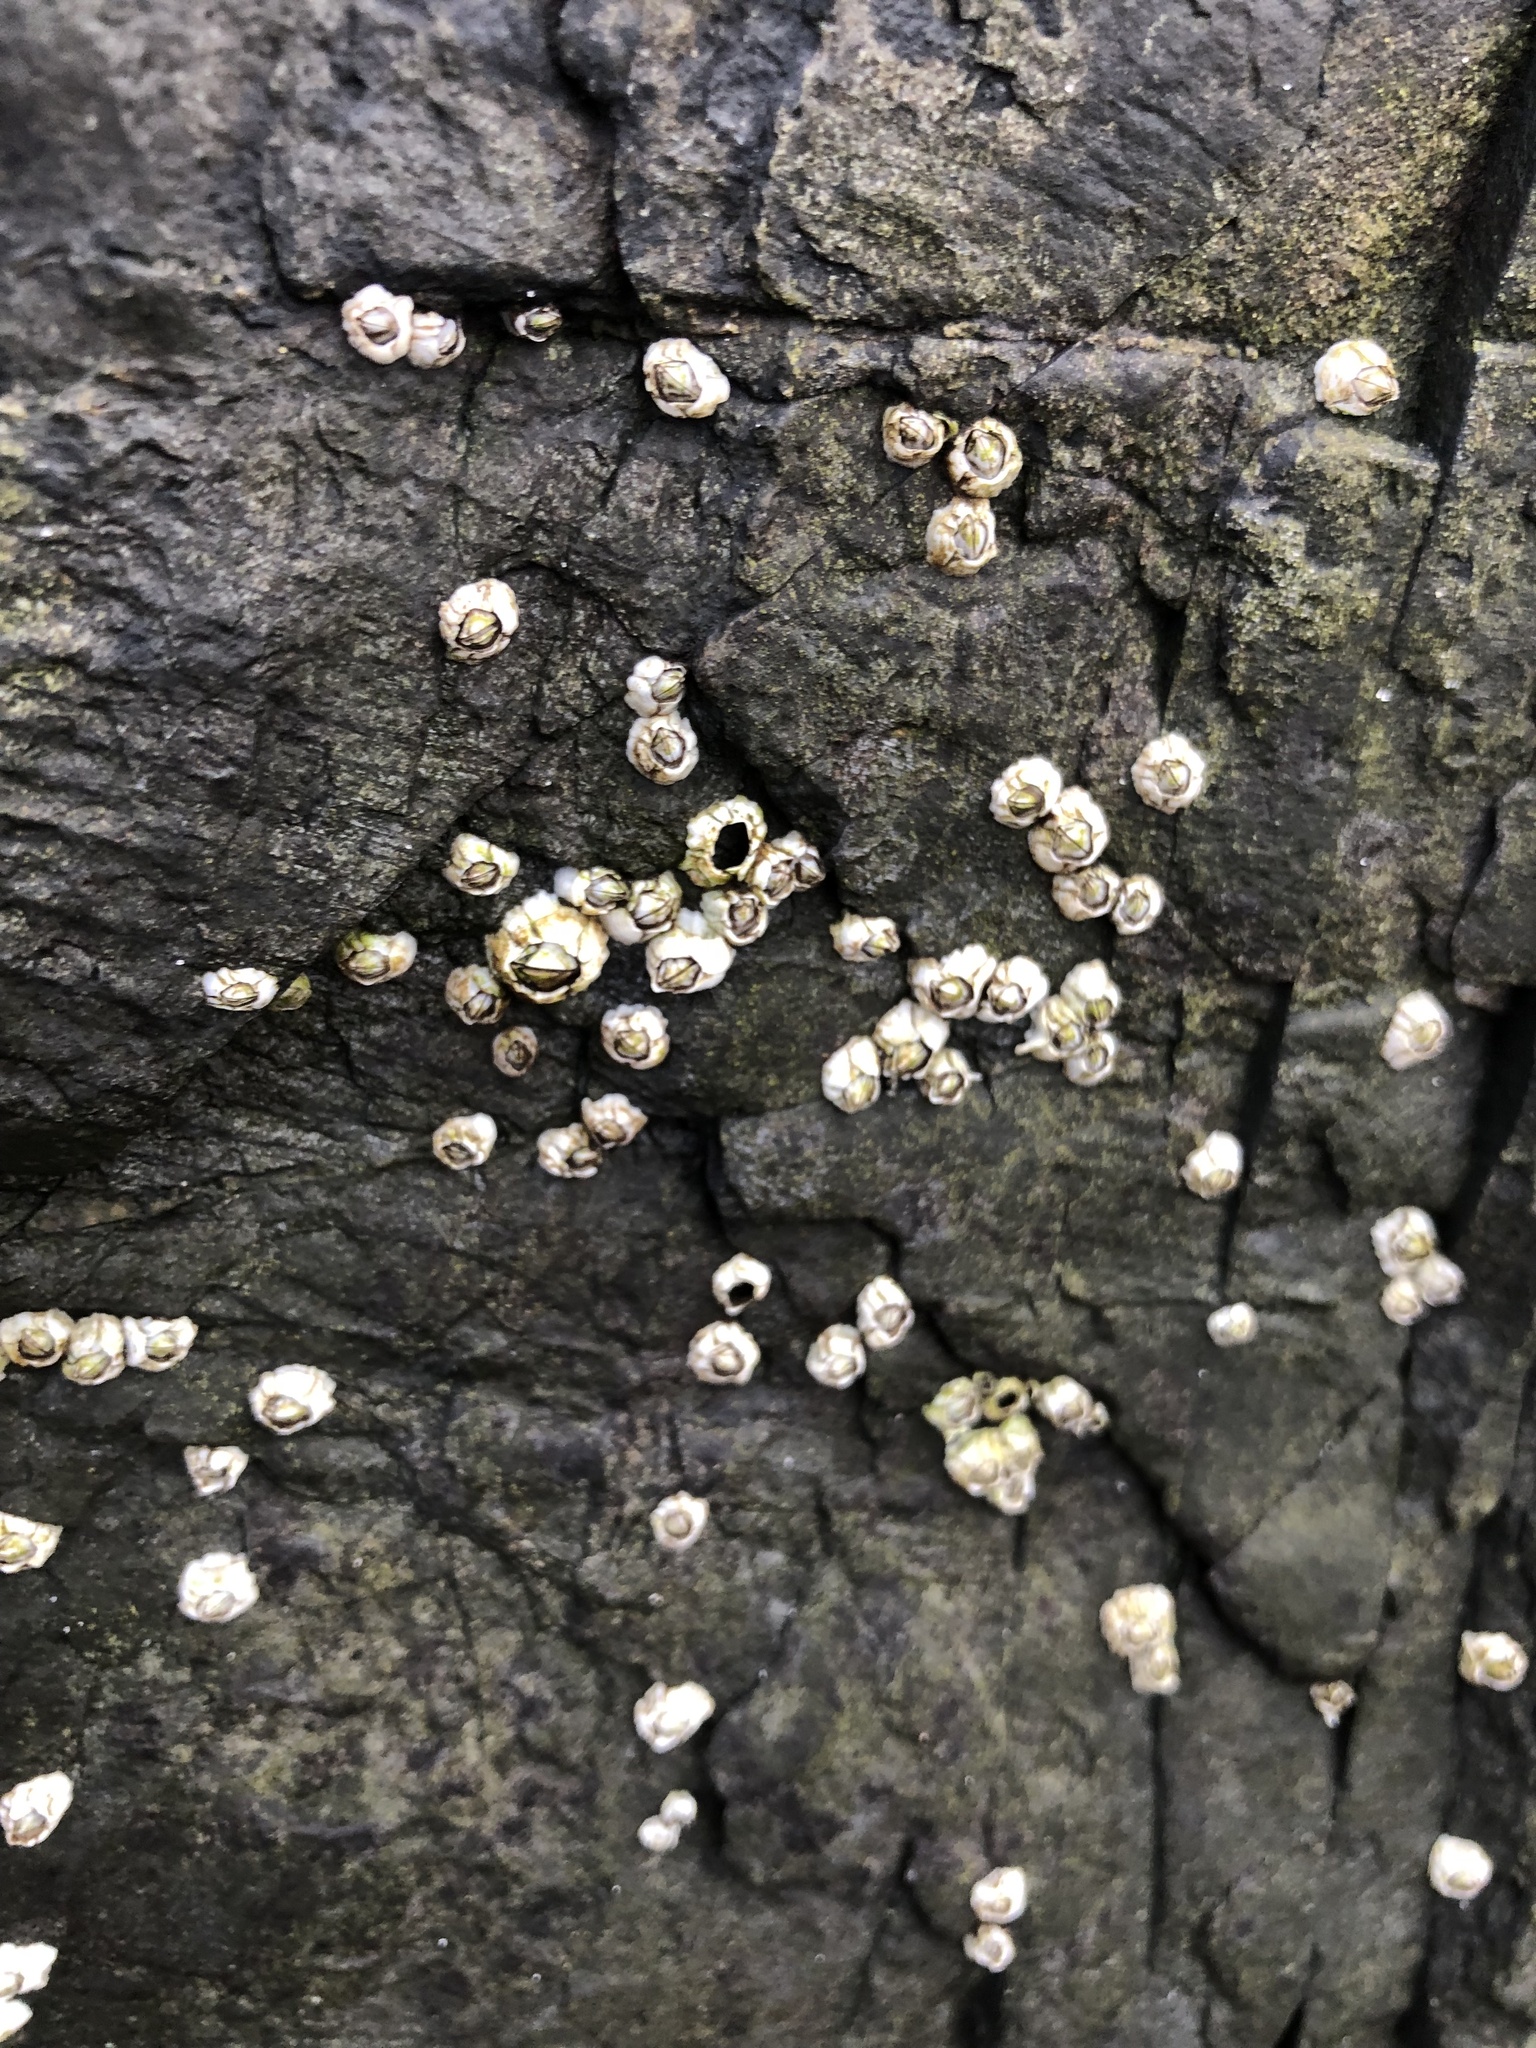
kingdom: Animalia
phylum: Arthropoda
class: Maxillopoda
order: Sessilia
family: Archaeobalanidae
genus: Semibalanus
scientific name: Semibalanus balanoides
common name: Acorn barnacle
